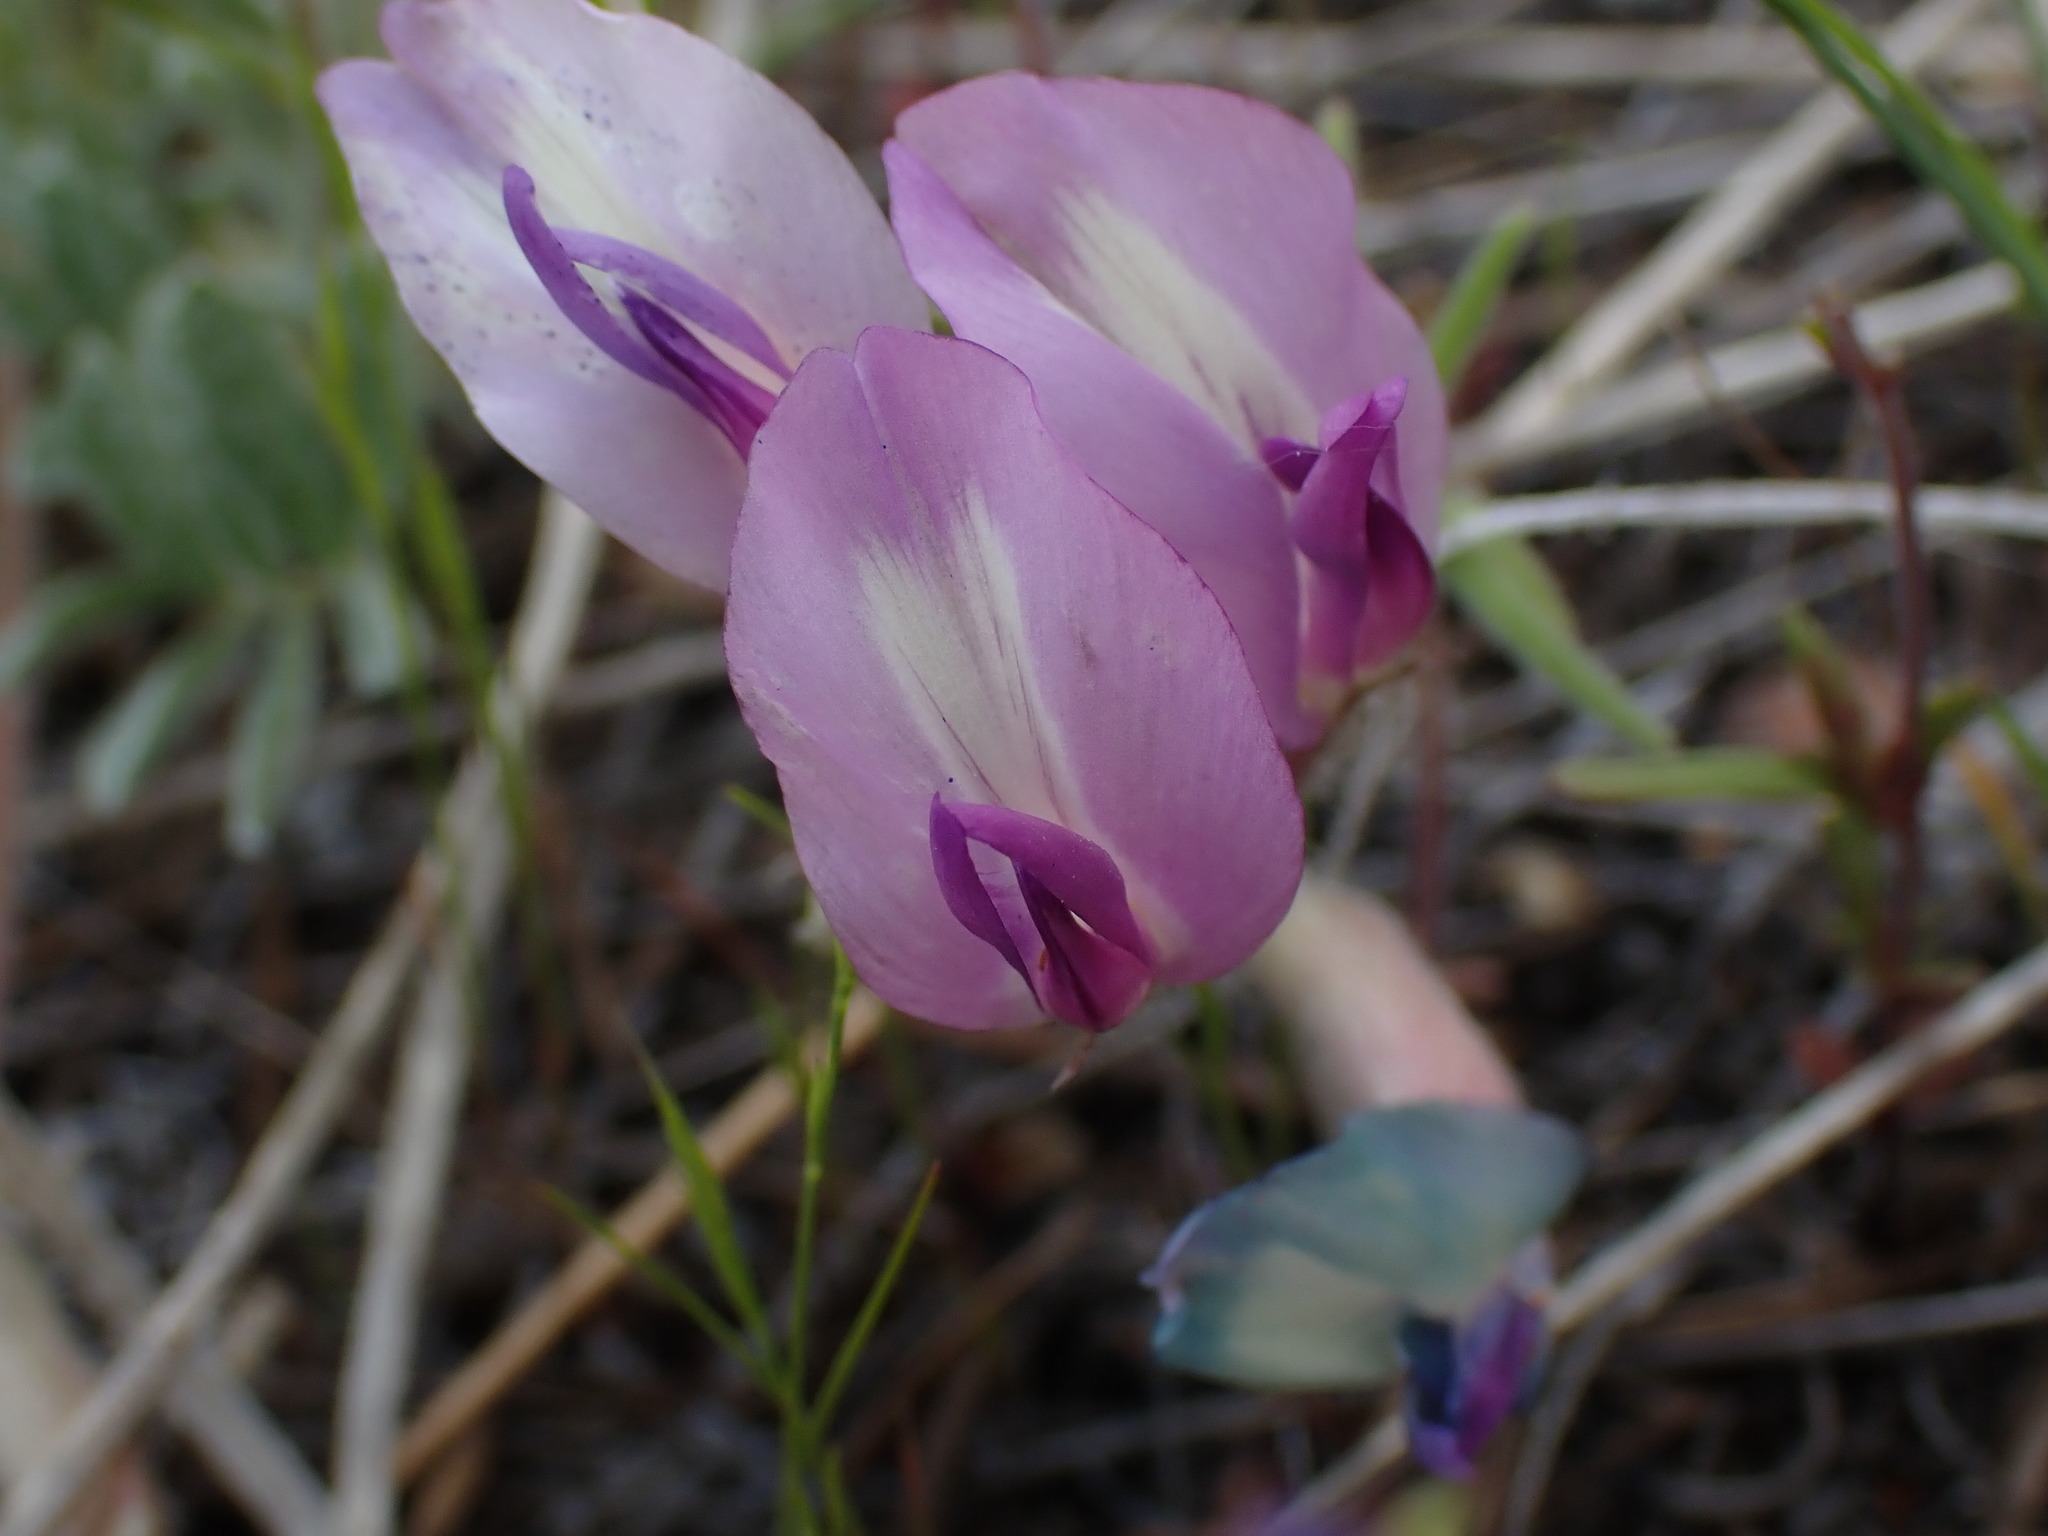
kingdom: Plantae
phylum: Tracheophyta
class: Magnoliopsida
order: Fabales
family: Fabaceae
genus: Astragalus
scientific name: Astragalus purshii
